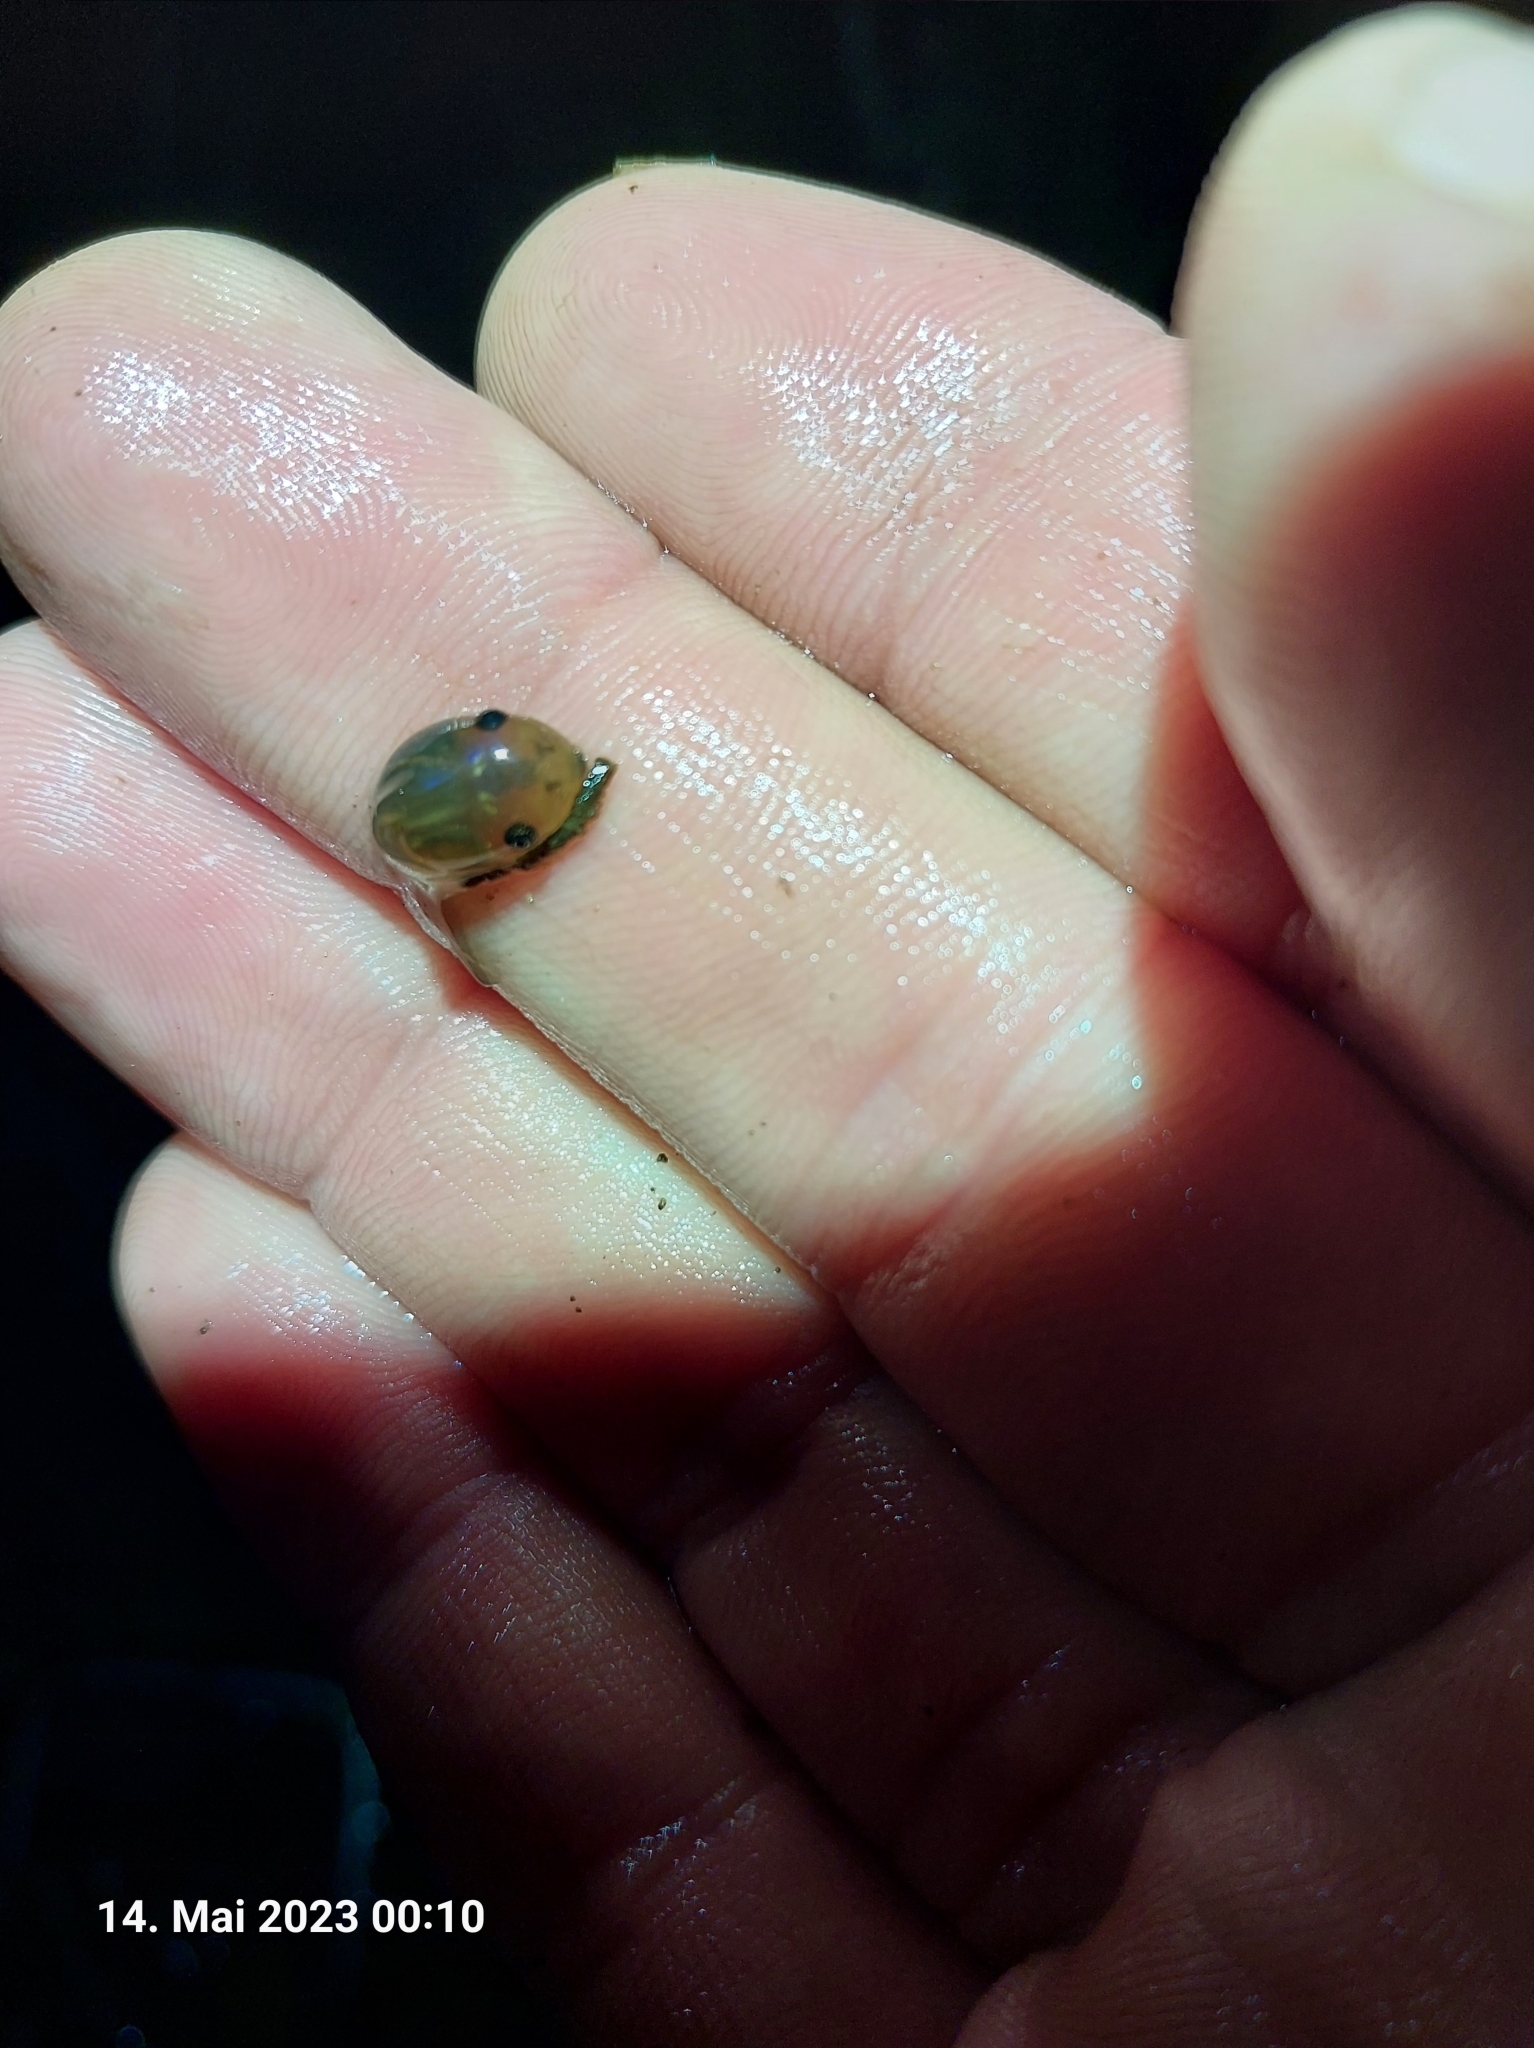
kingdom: Animalia
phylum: Chordata
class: Amphibia
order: Anura
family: Pelobatidae
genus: Pelobates
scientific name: Pelobates fuscus
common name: Common eurasian spadefoot toad
